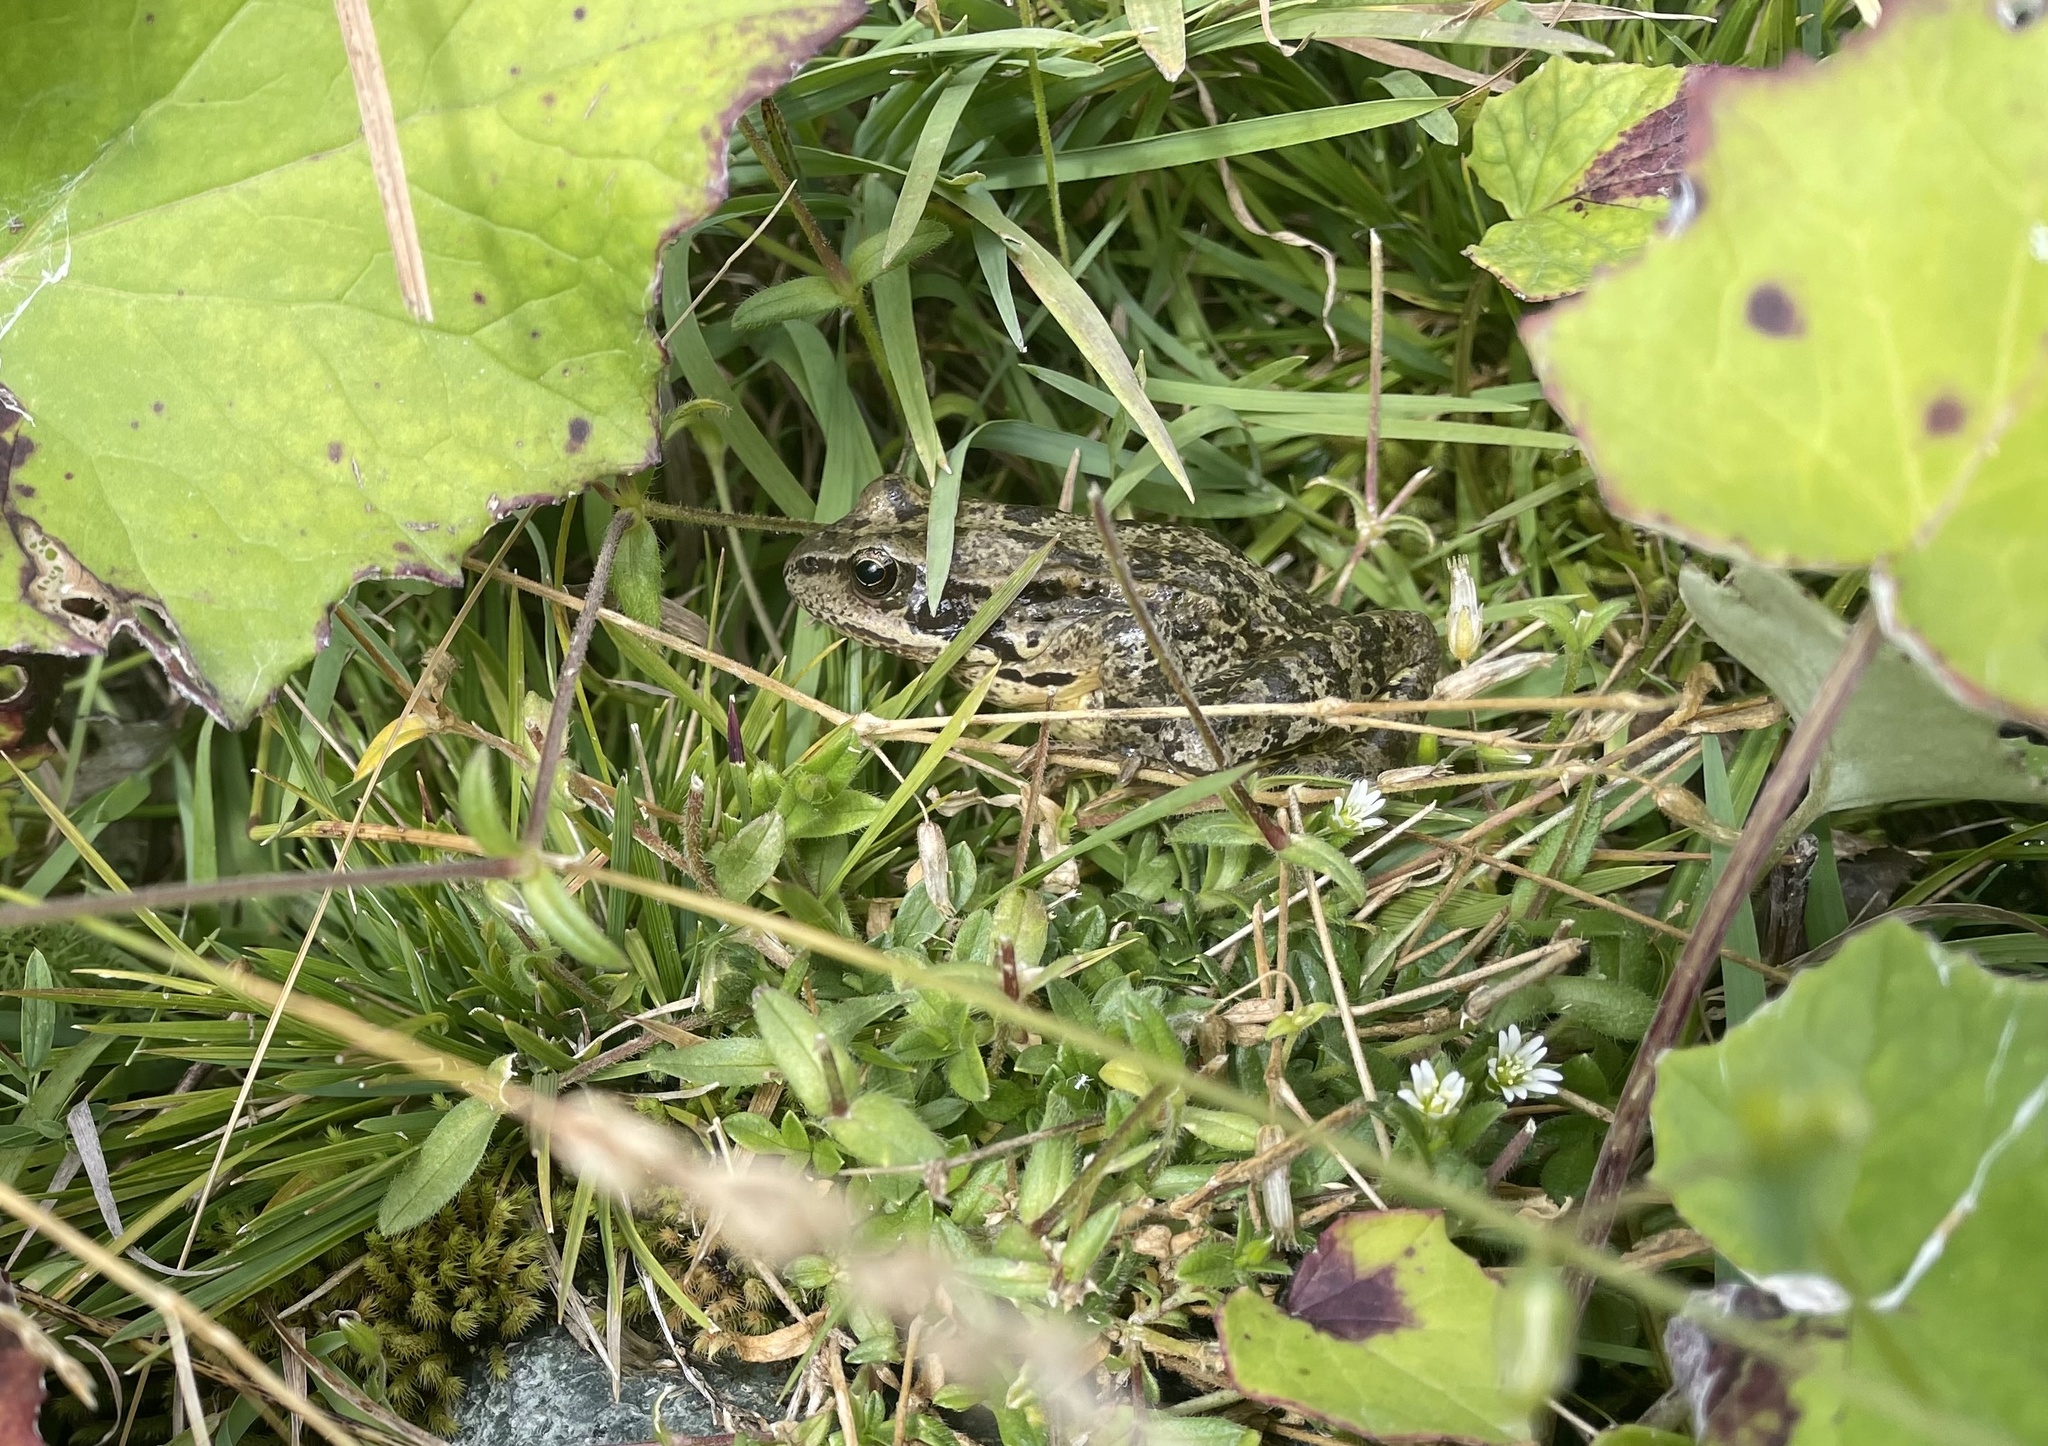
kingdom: Animalia
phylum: Chordata
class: Amphibia
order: Anura
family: Ranidae
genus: Rana
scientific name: Rana temporaria
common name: Common frog
